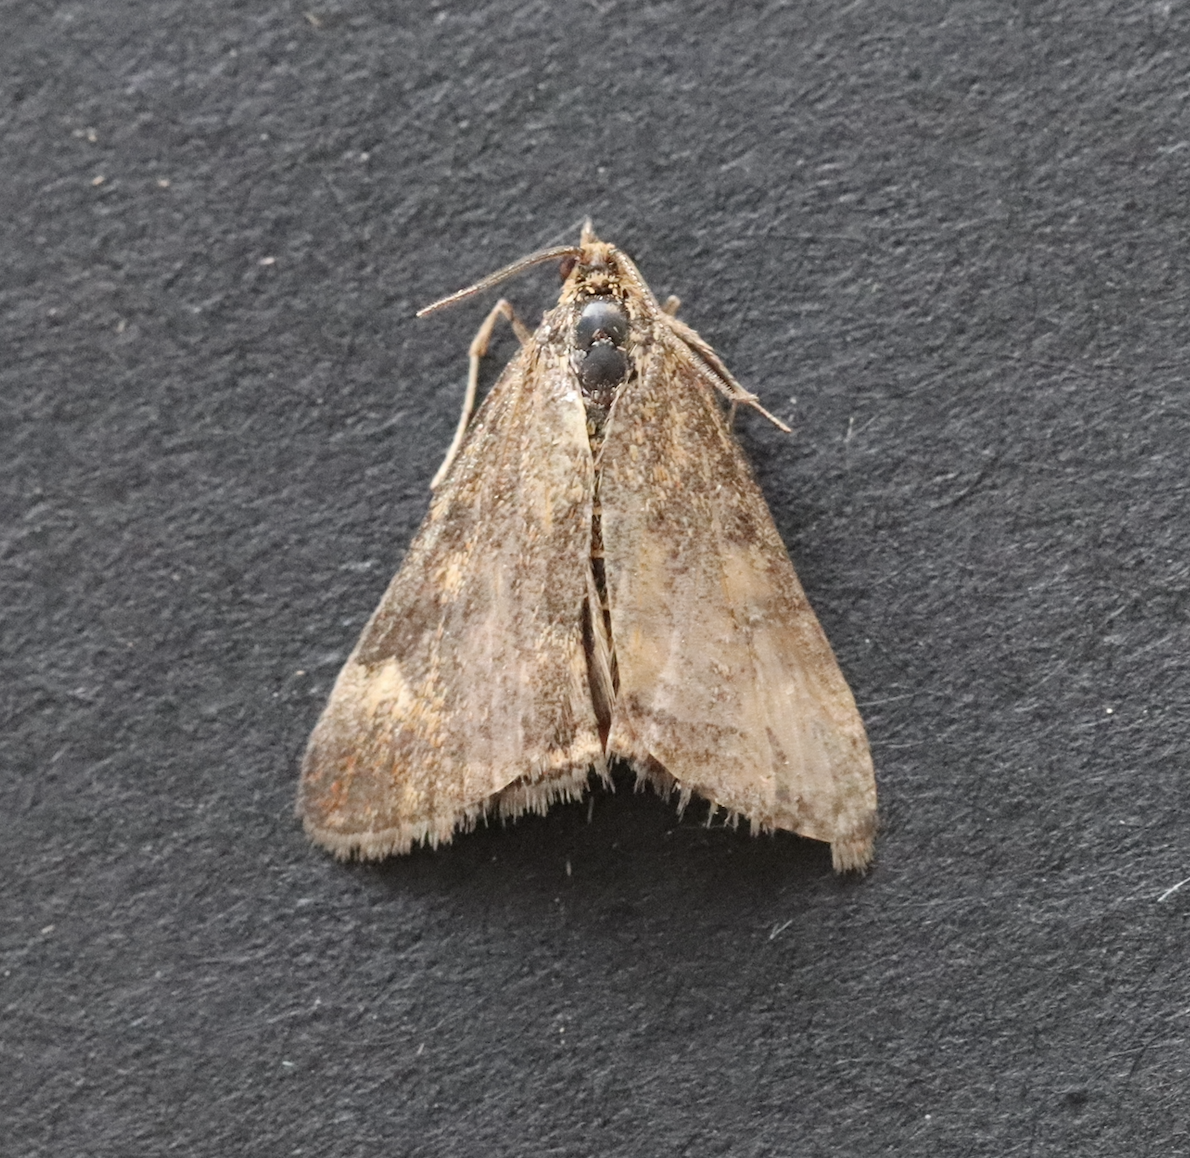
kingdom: Animalia
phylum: Arthropoda
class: Insecta
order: Lepidoptera
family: Crambidae
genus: Pyrausta
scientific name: Pyrausta despicata
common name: Straw-barred pearl
